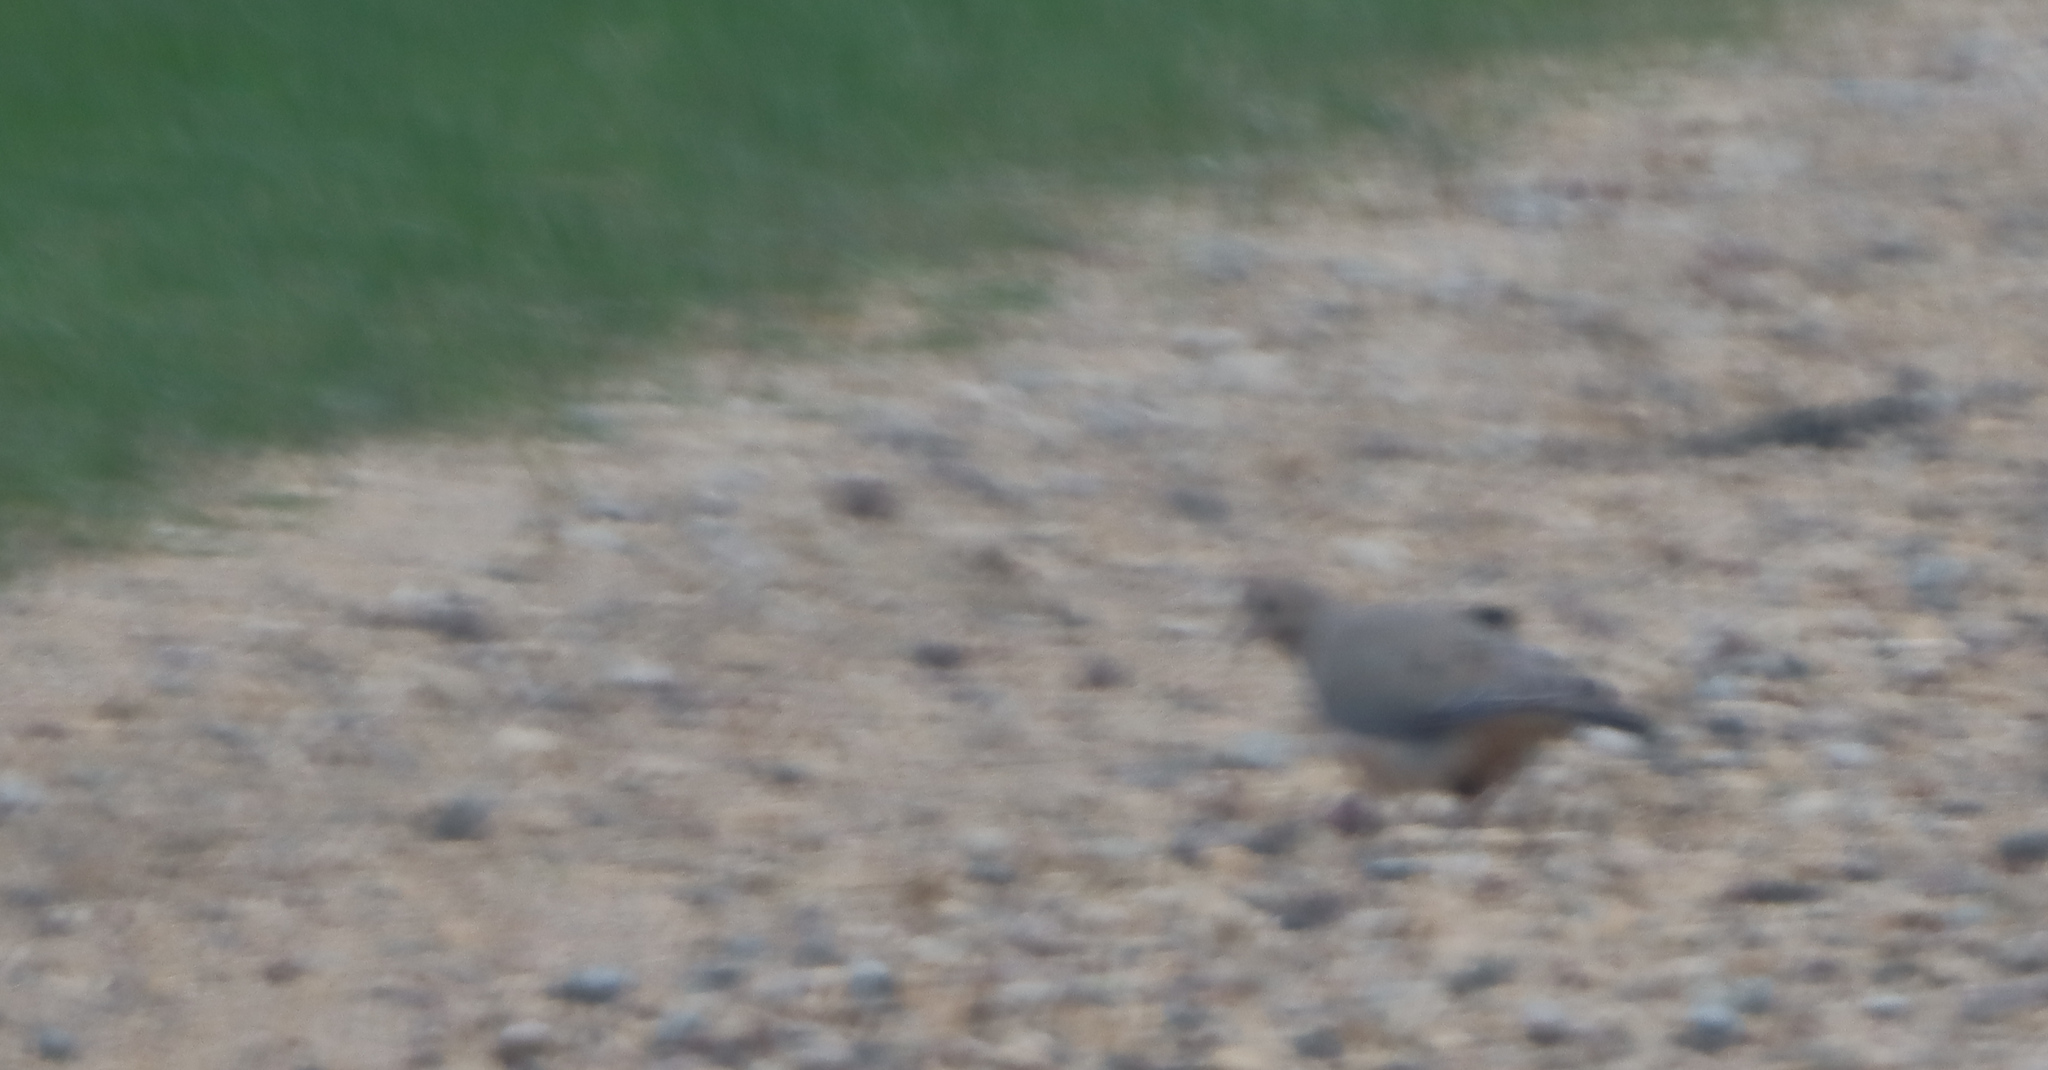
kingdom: Animalia
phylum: Chordata
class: Aves
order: Columbiformes
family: Columbidae
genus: Zenaida
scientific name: Zenaida macroura
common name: Mourning dove
